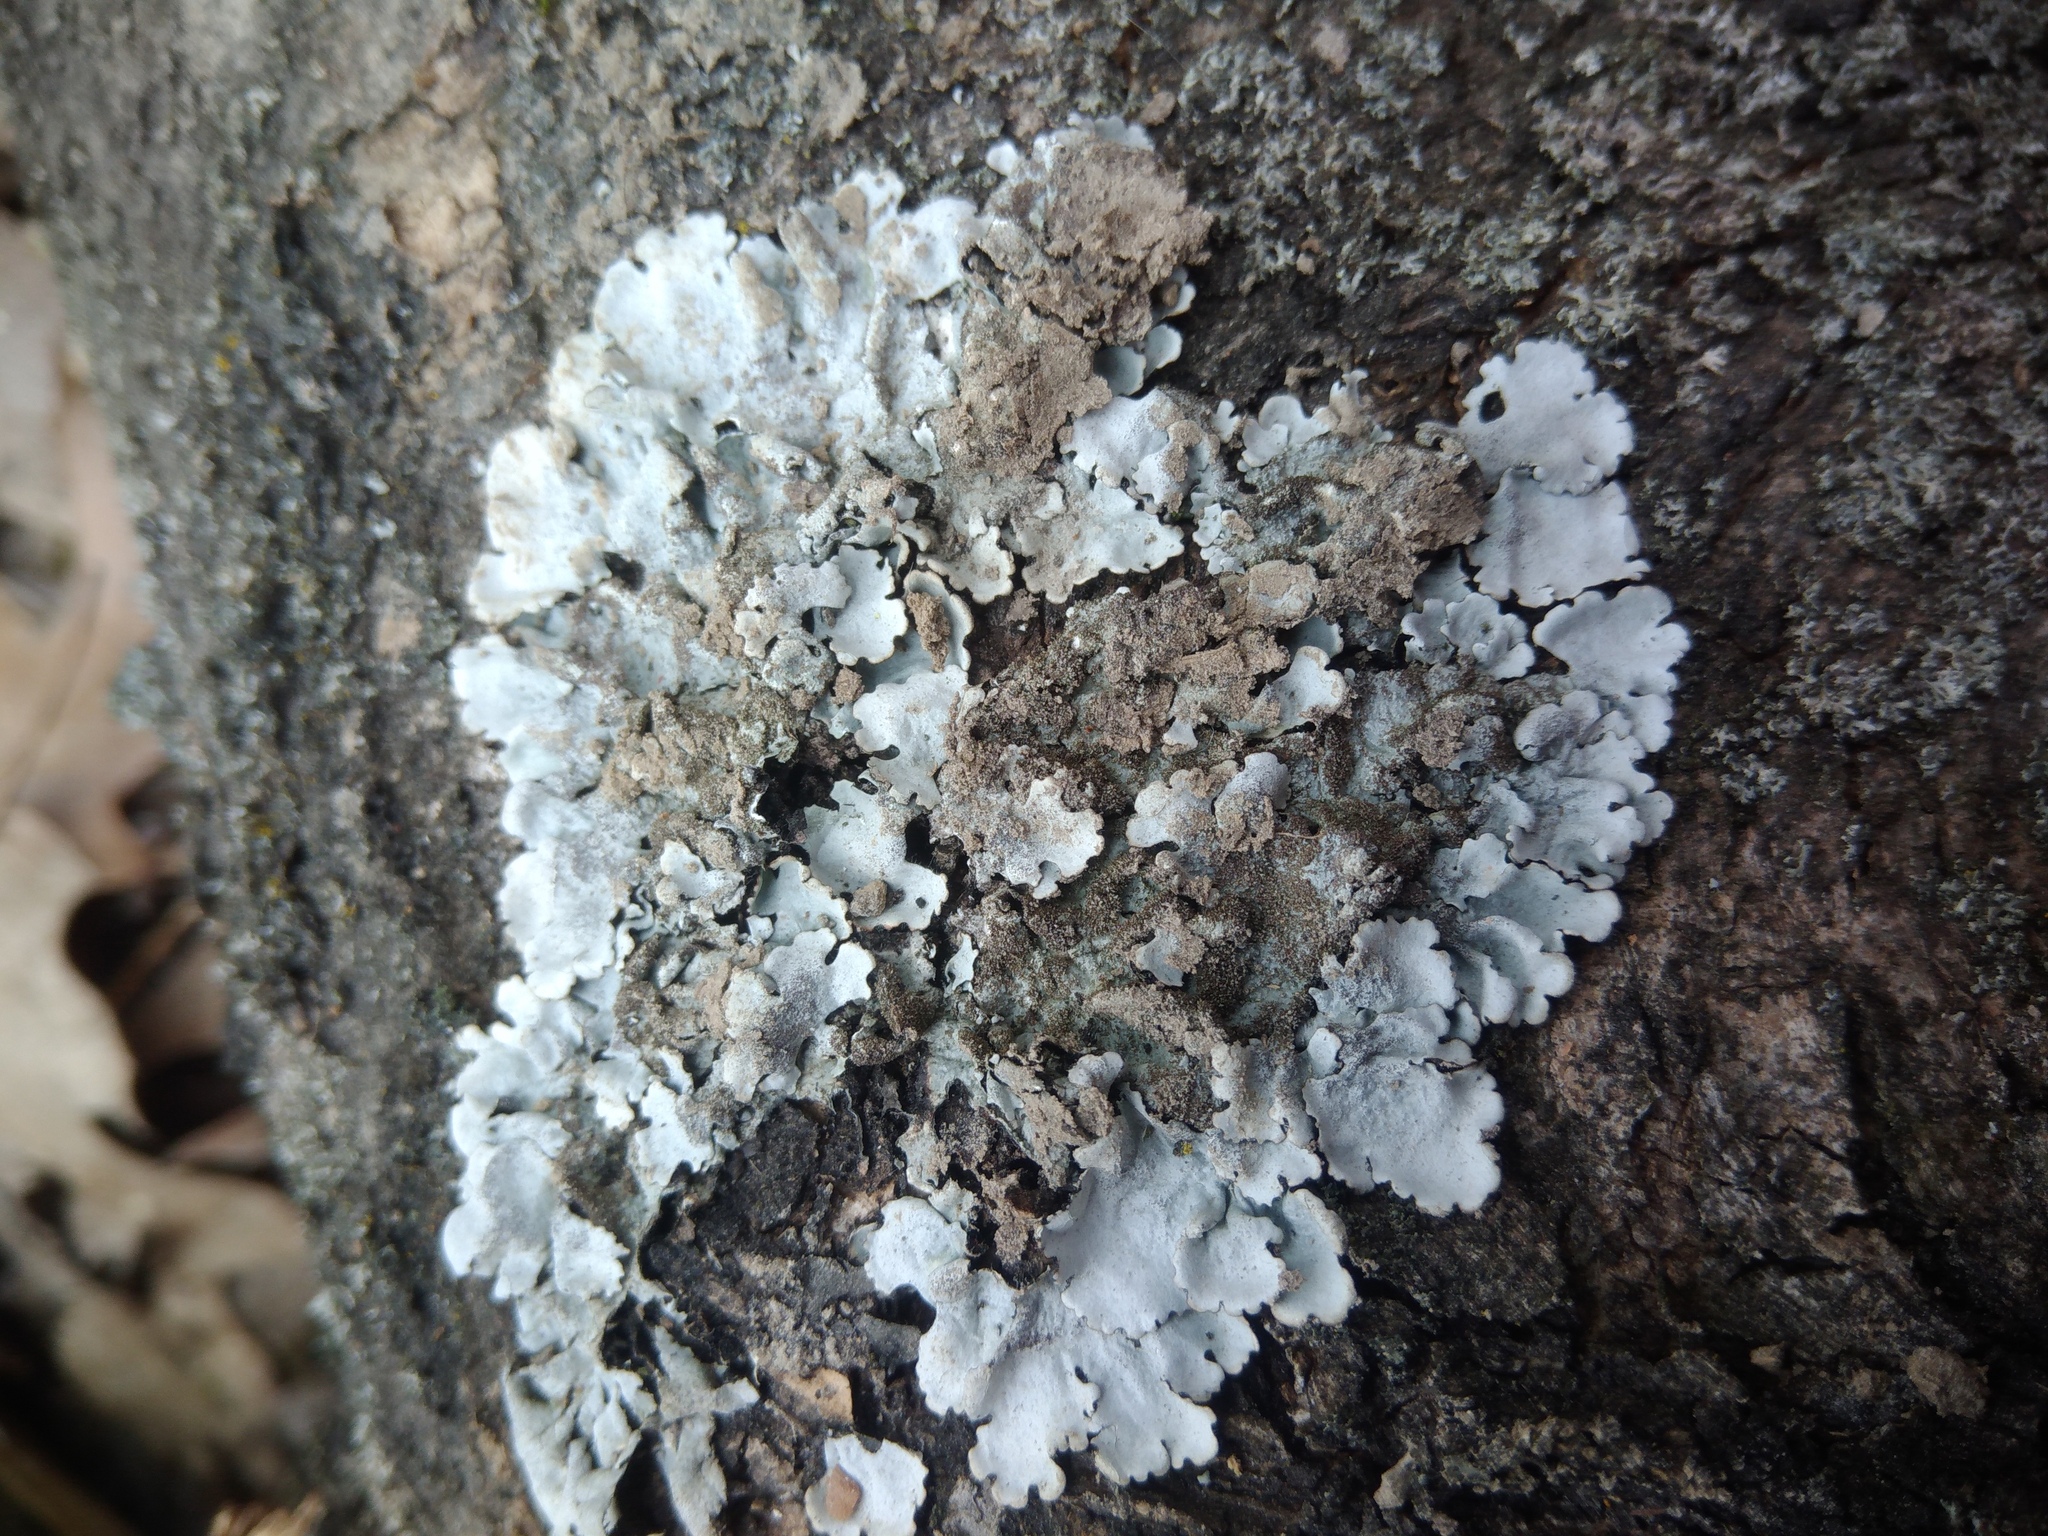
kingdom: Fungi
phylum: Ascomycota
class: Lecanoromycetes
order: Lecanorales
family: Parmeliaceae
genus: Parmelina
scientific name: Parmelina tiliacea
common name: Linden shield lichen
